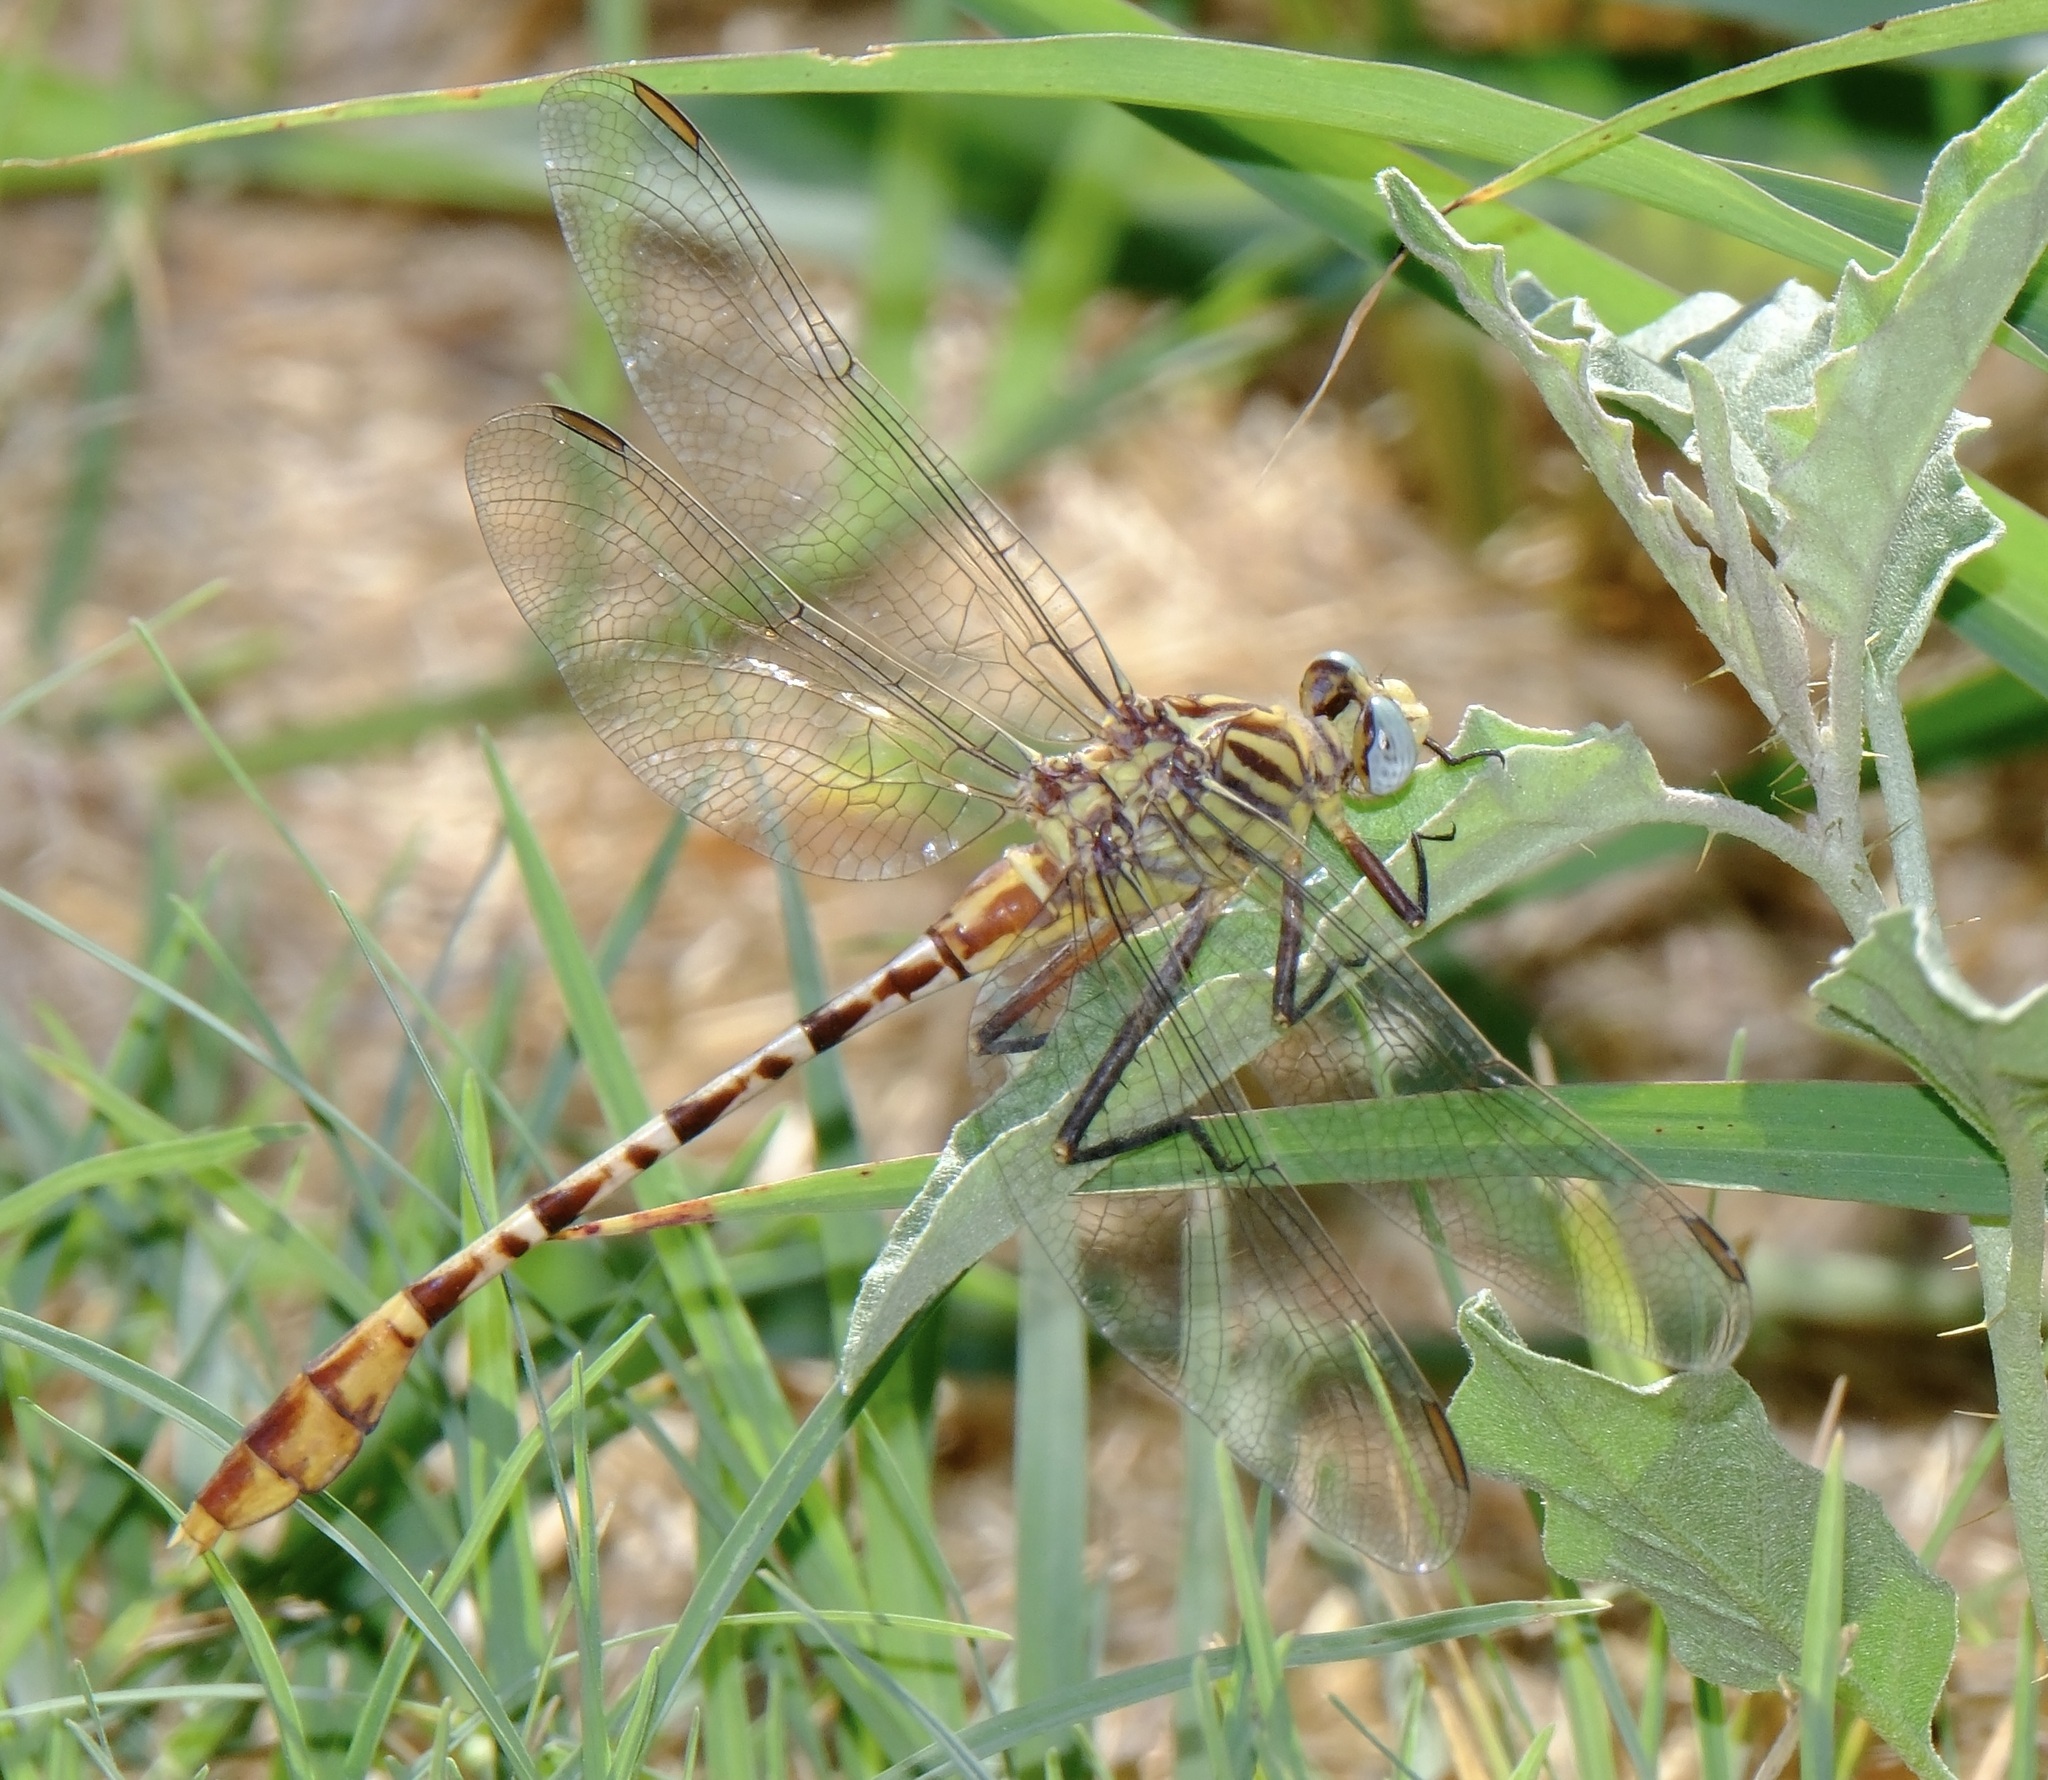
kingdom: Animalia
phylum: Arthropoda
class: Insecta
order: Odonata
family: Gomphidae
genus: Dromogomphus
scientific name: Dromogomphus spoliatus
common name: Flag-tailed spinyleg
